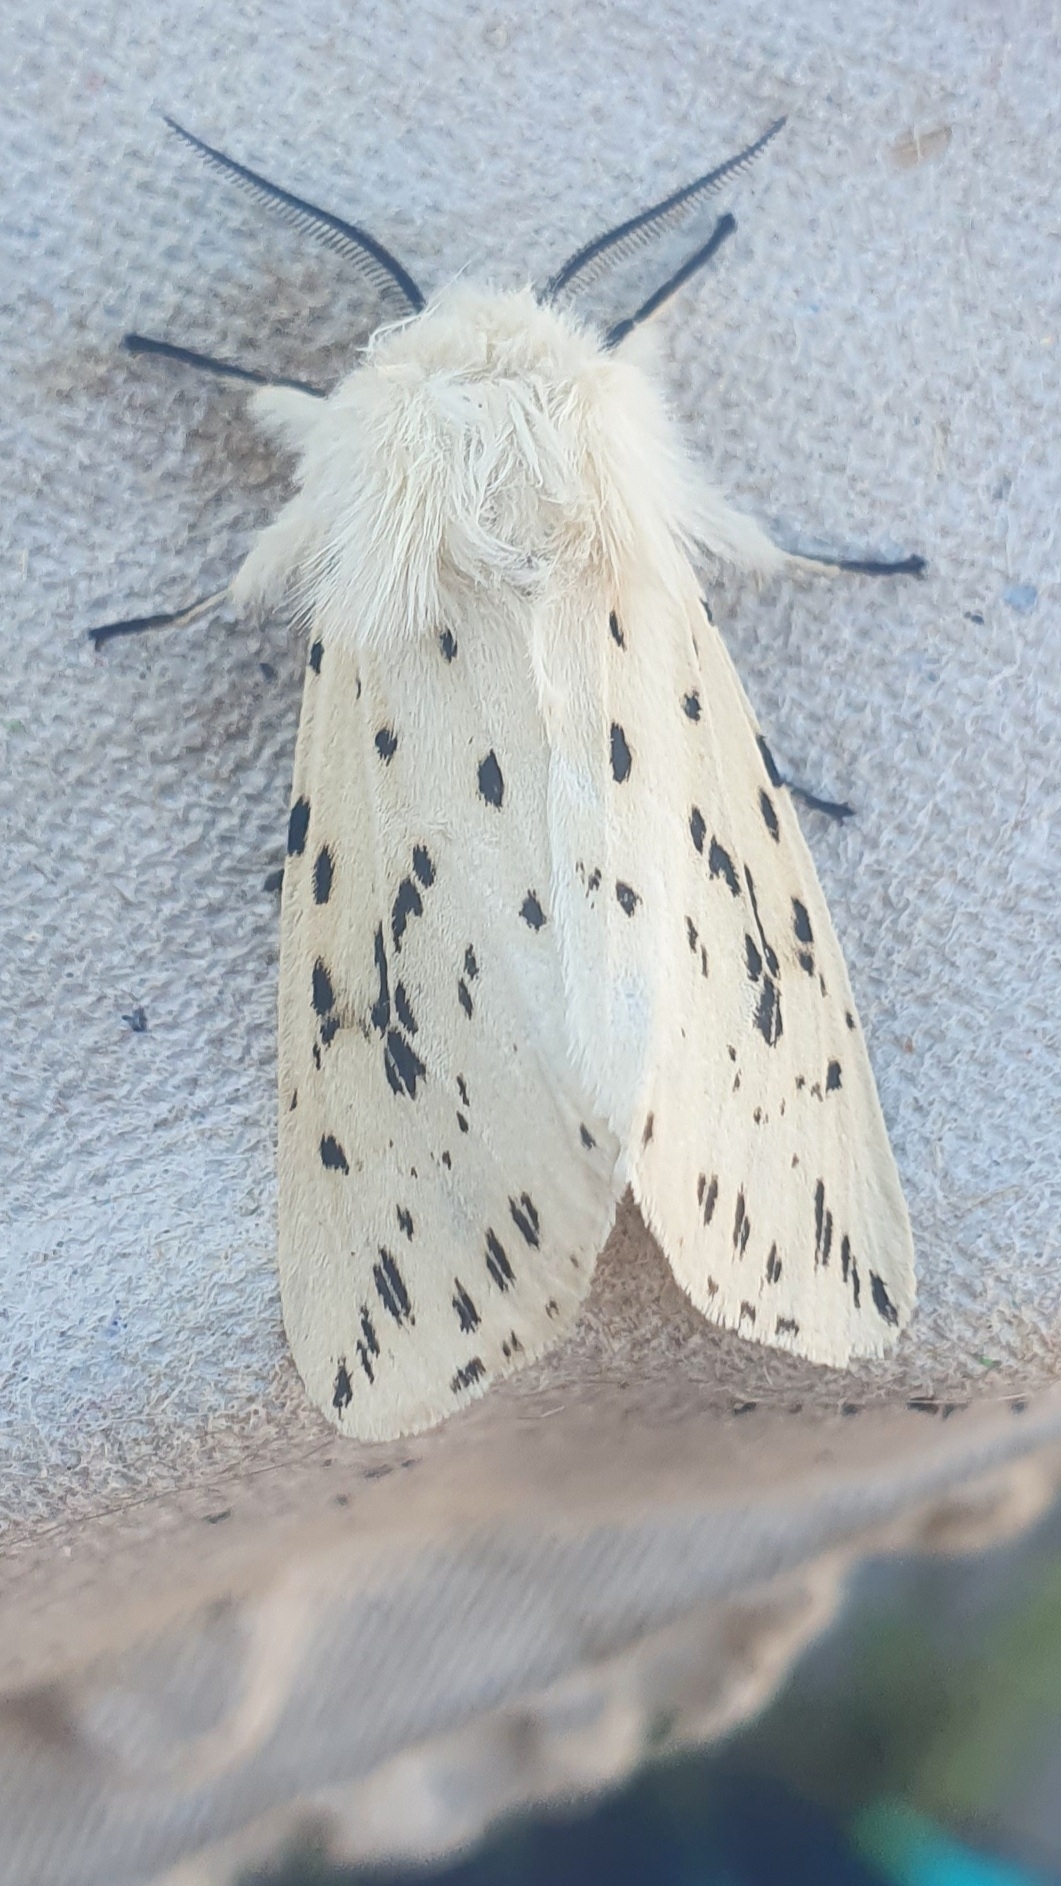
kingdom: Animalia
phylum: Arthropoda
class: Insecta
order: Lepidoptera
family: Erebidae
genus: Spilosoma
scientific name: Spilosoma lubricipeda
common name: White ermine
